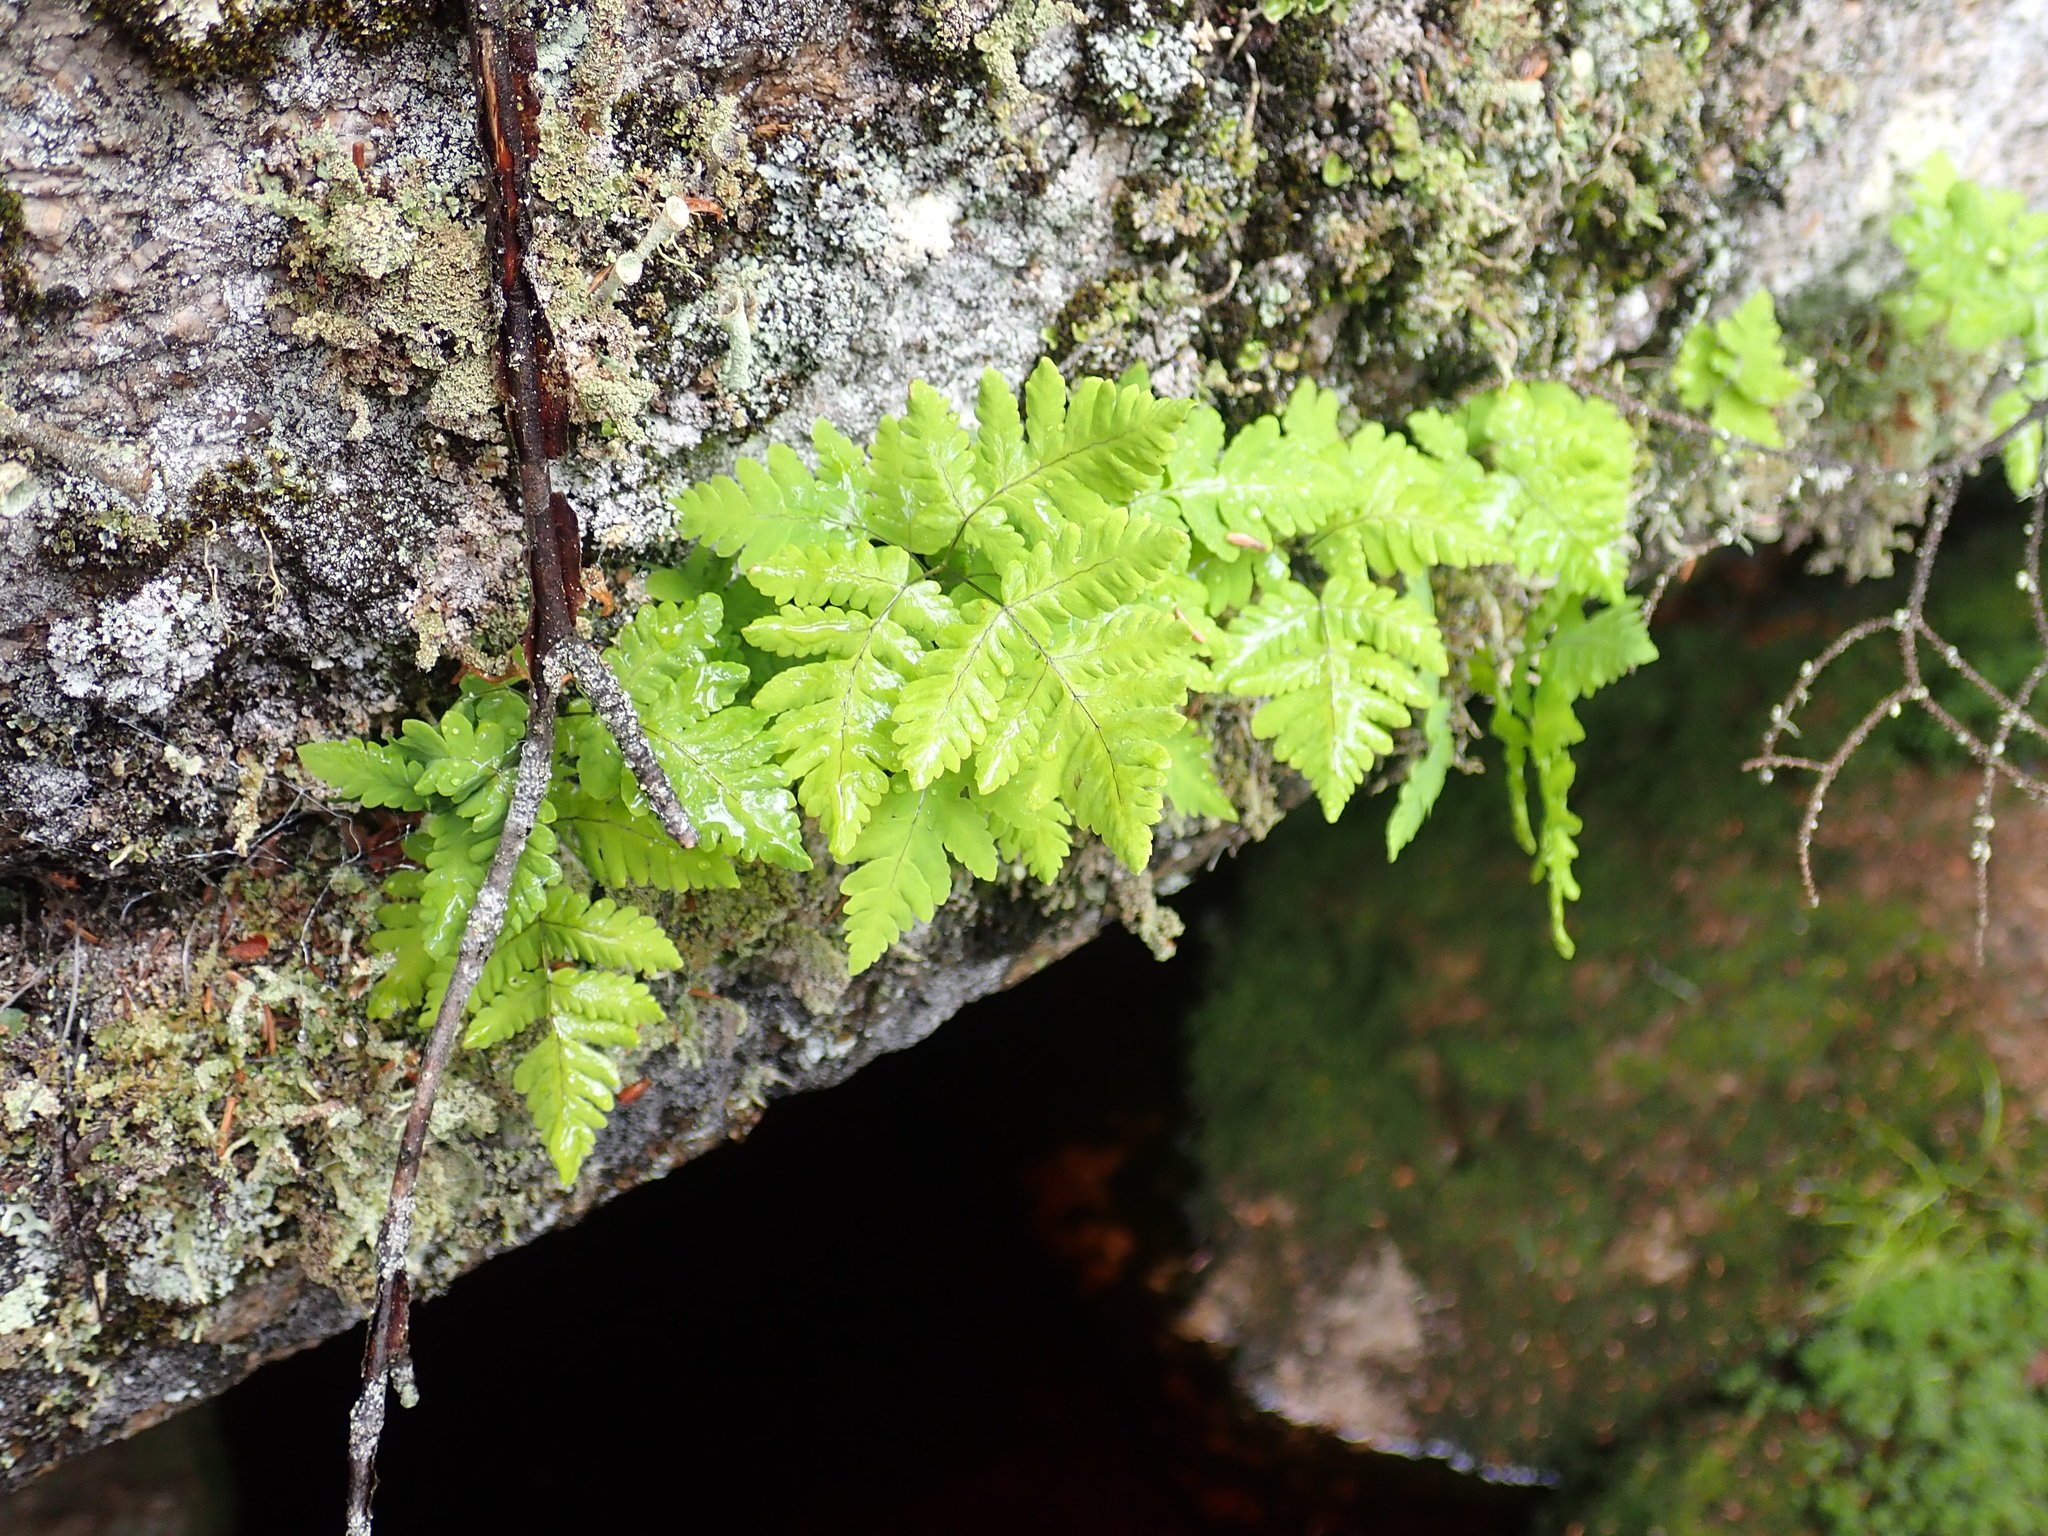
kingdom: Plantae
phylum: Tracheophyta
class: Polypodiopsida
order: Polypodiales
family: Cystopteridaceae
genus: Gymnocarpium
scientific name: Gymnocarpium dryopteris
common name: Oak fern
